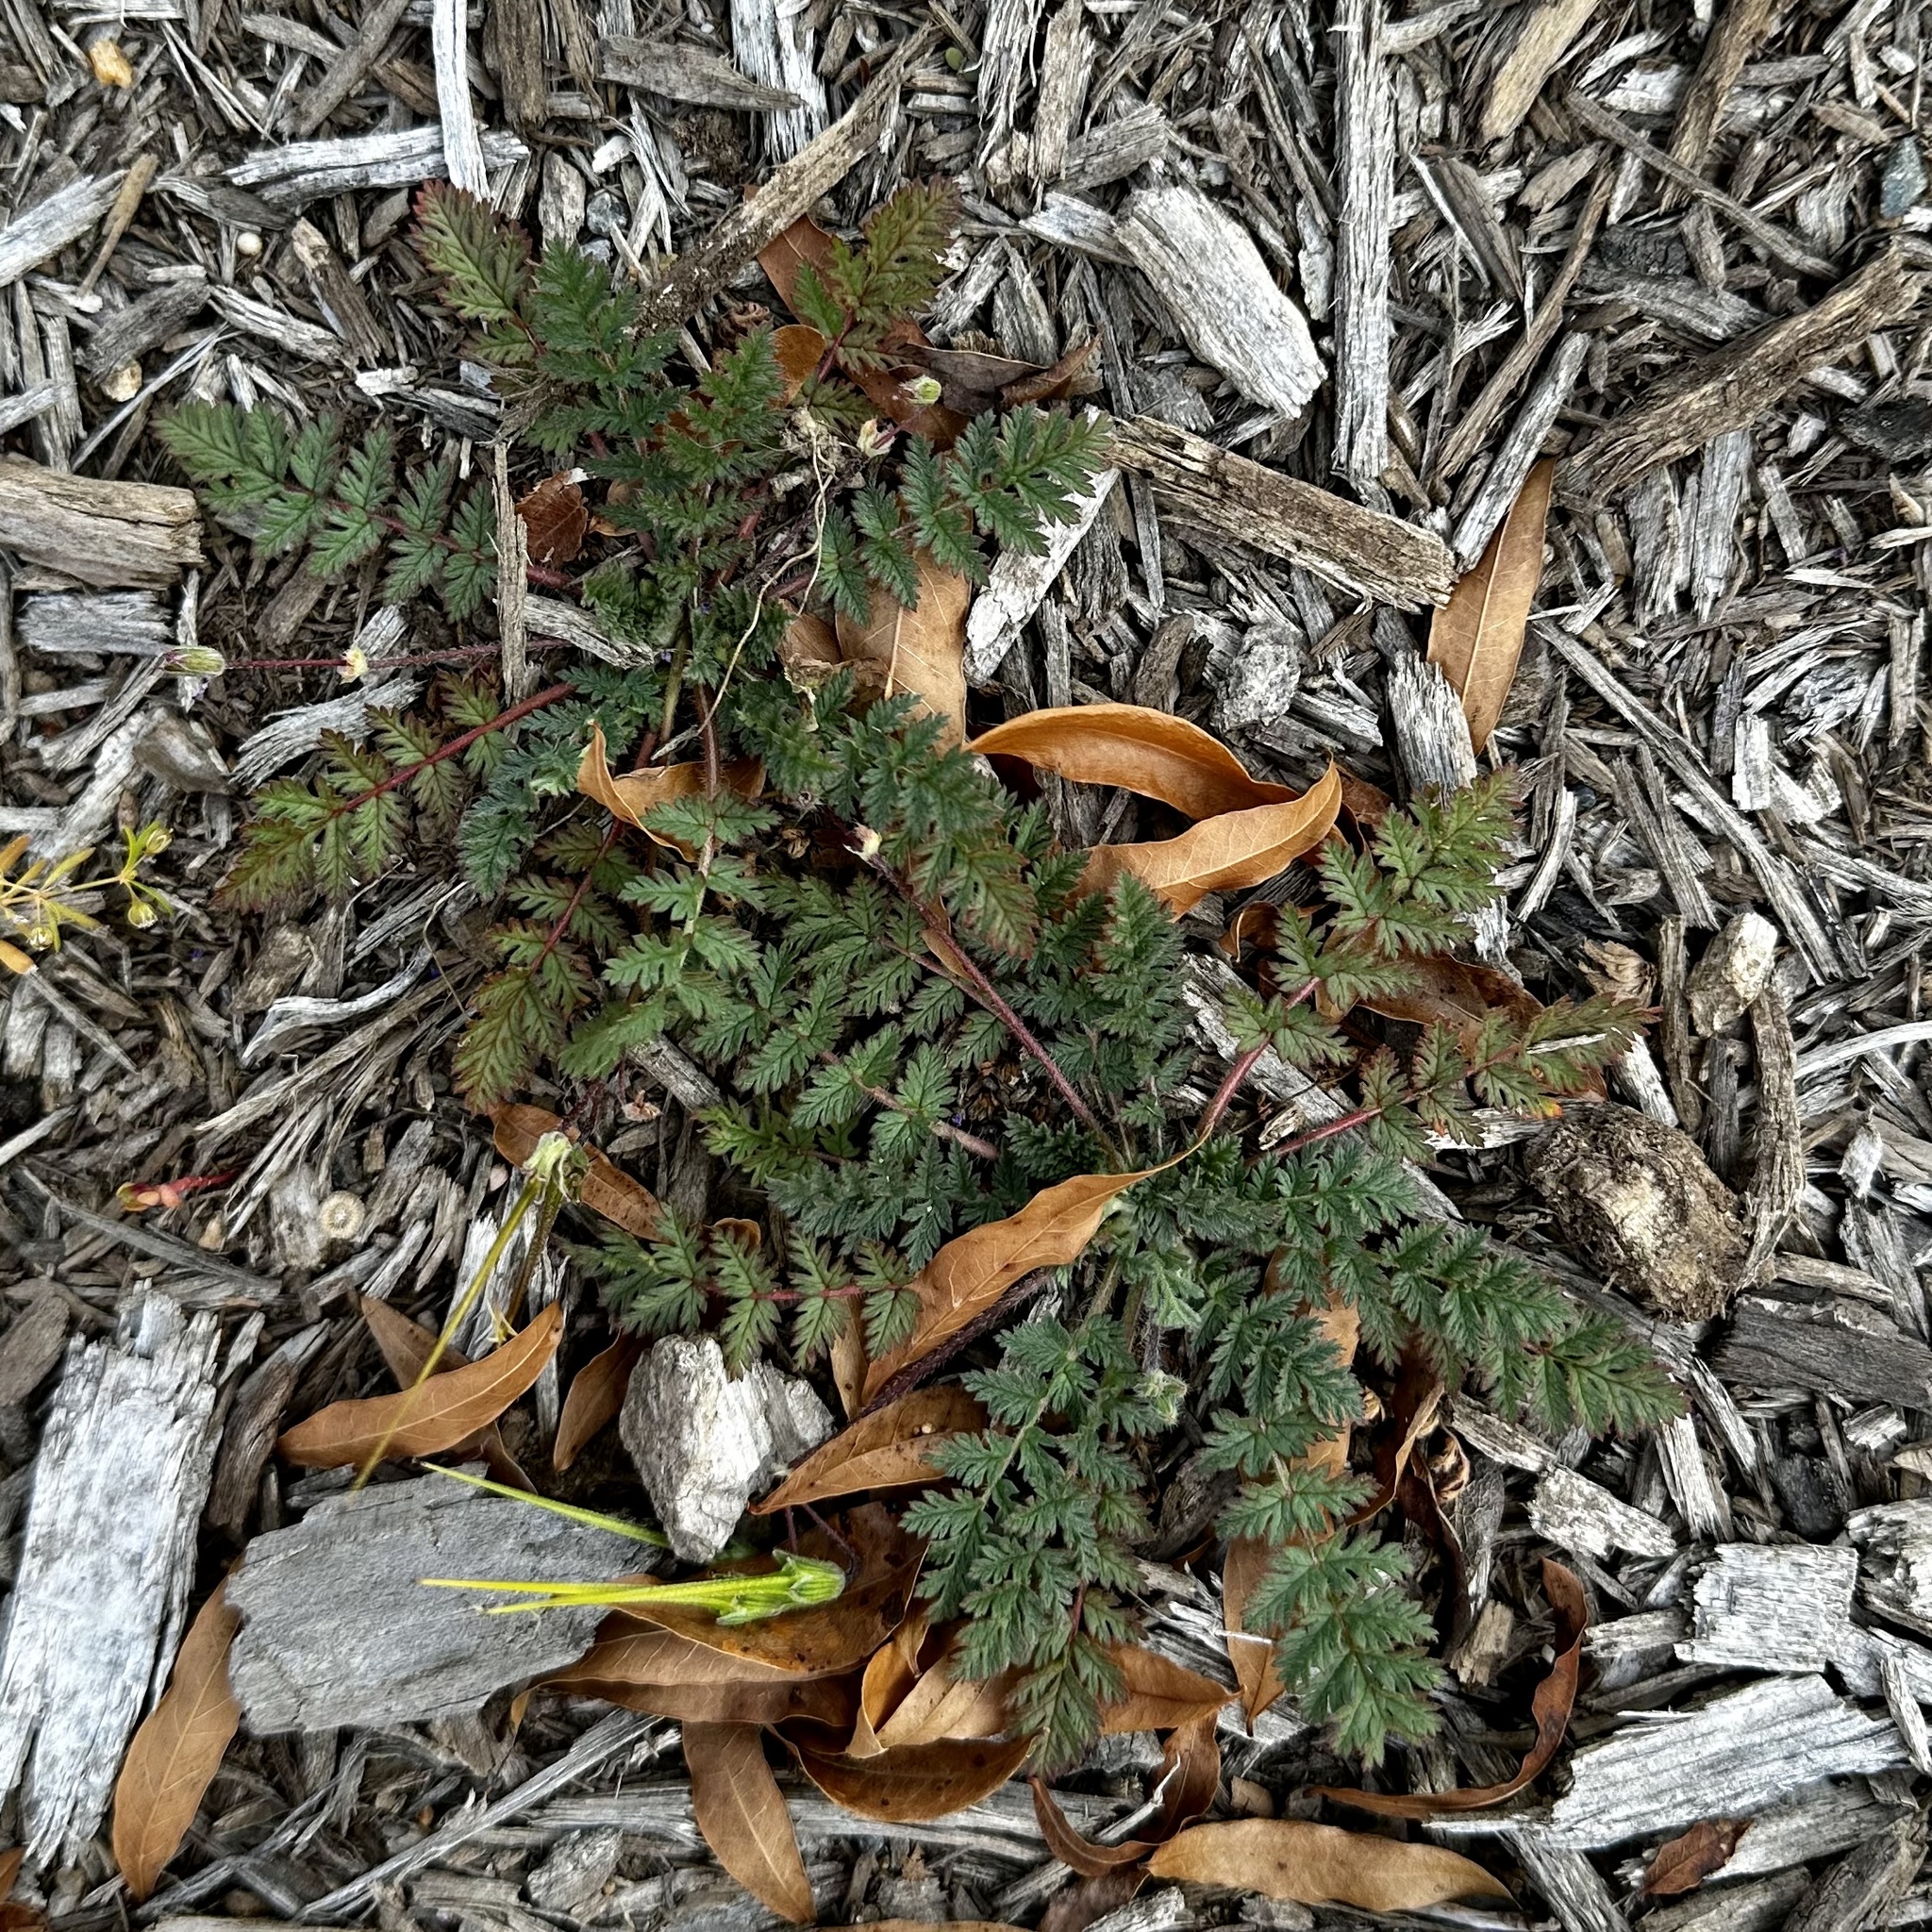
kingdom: Plantae
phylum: Tracheophyta
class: Magnoliopsida
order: Geraniales
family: Geraniaceae
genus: Erodium
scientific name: Erodium cicutarium
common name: Common stork's-bill
